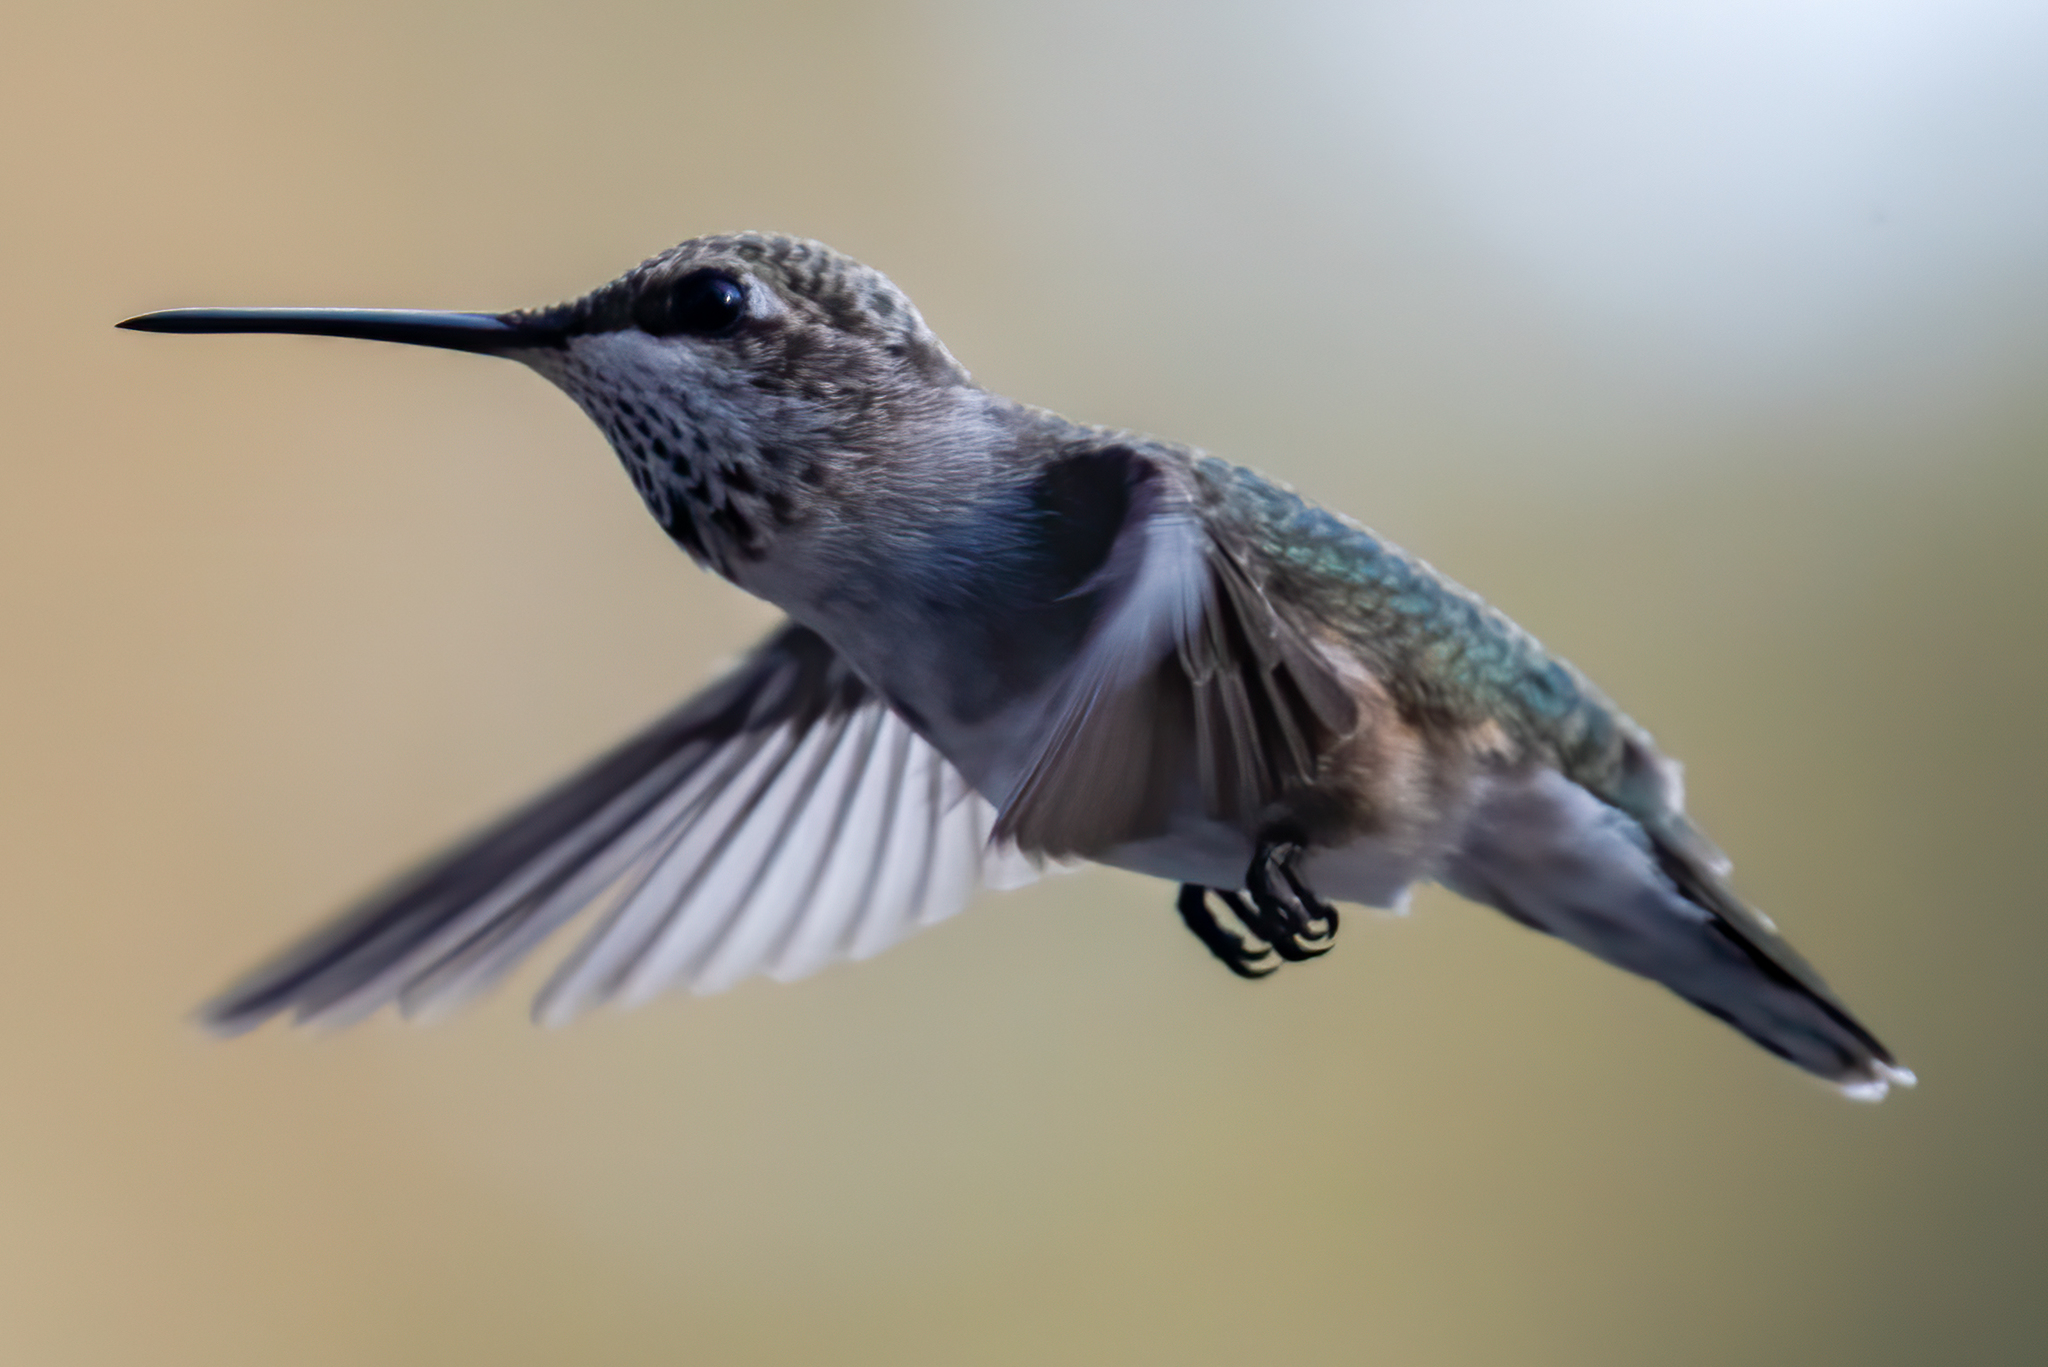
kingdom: Animalia
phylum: Chordata
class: Aves
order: Apodiformes
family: Trochilidae
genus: Archilochus
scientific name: Archilochus alexandri
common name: Black-chinned hummingbird
